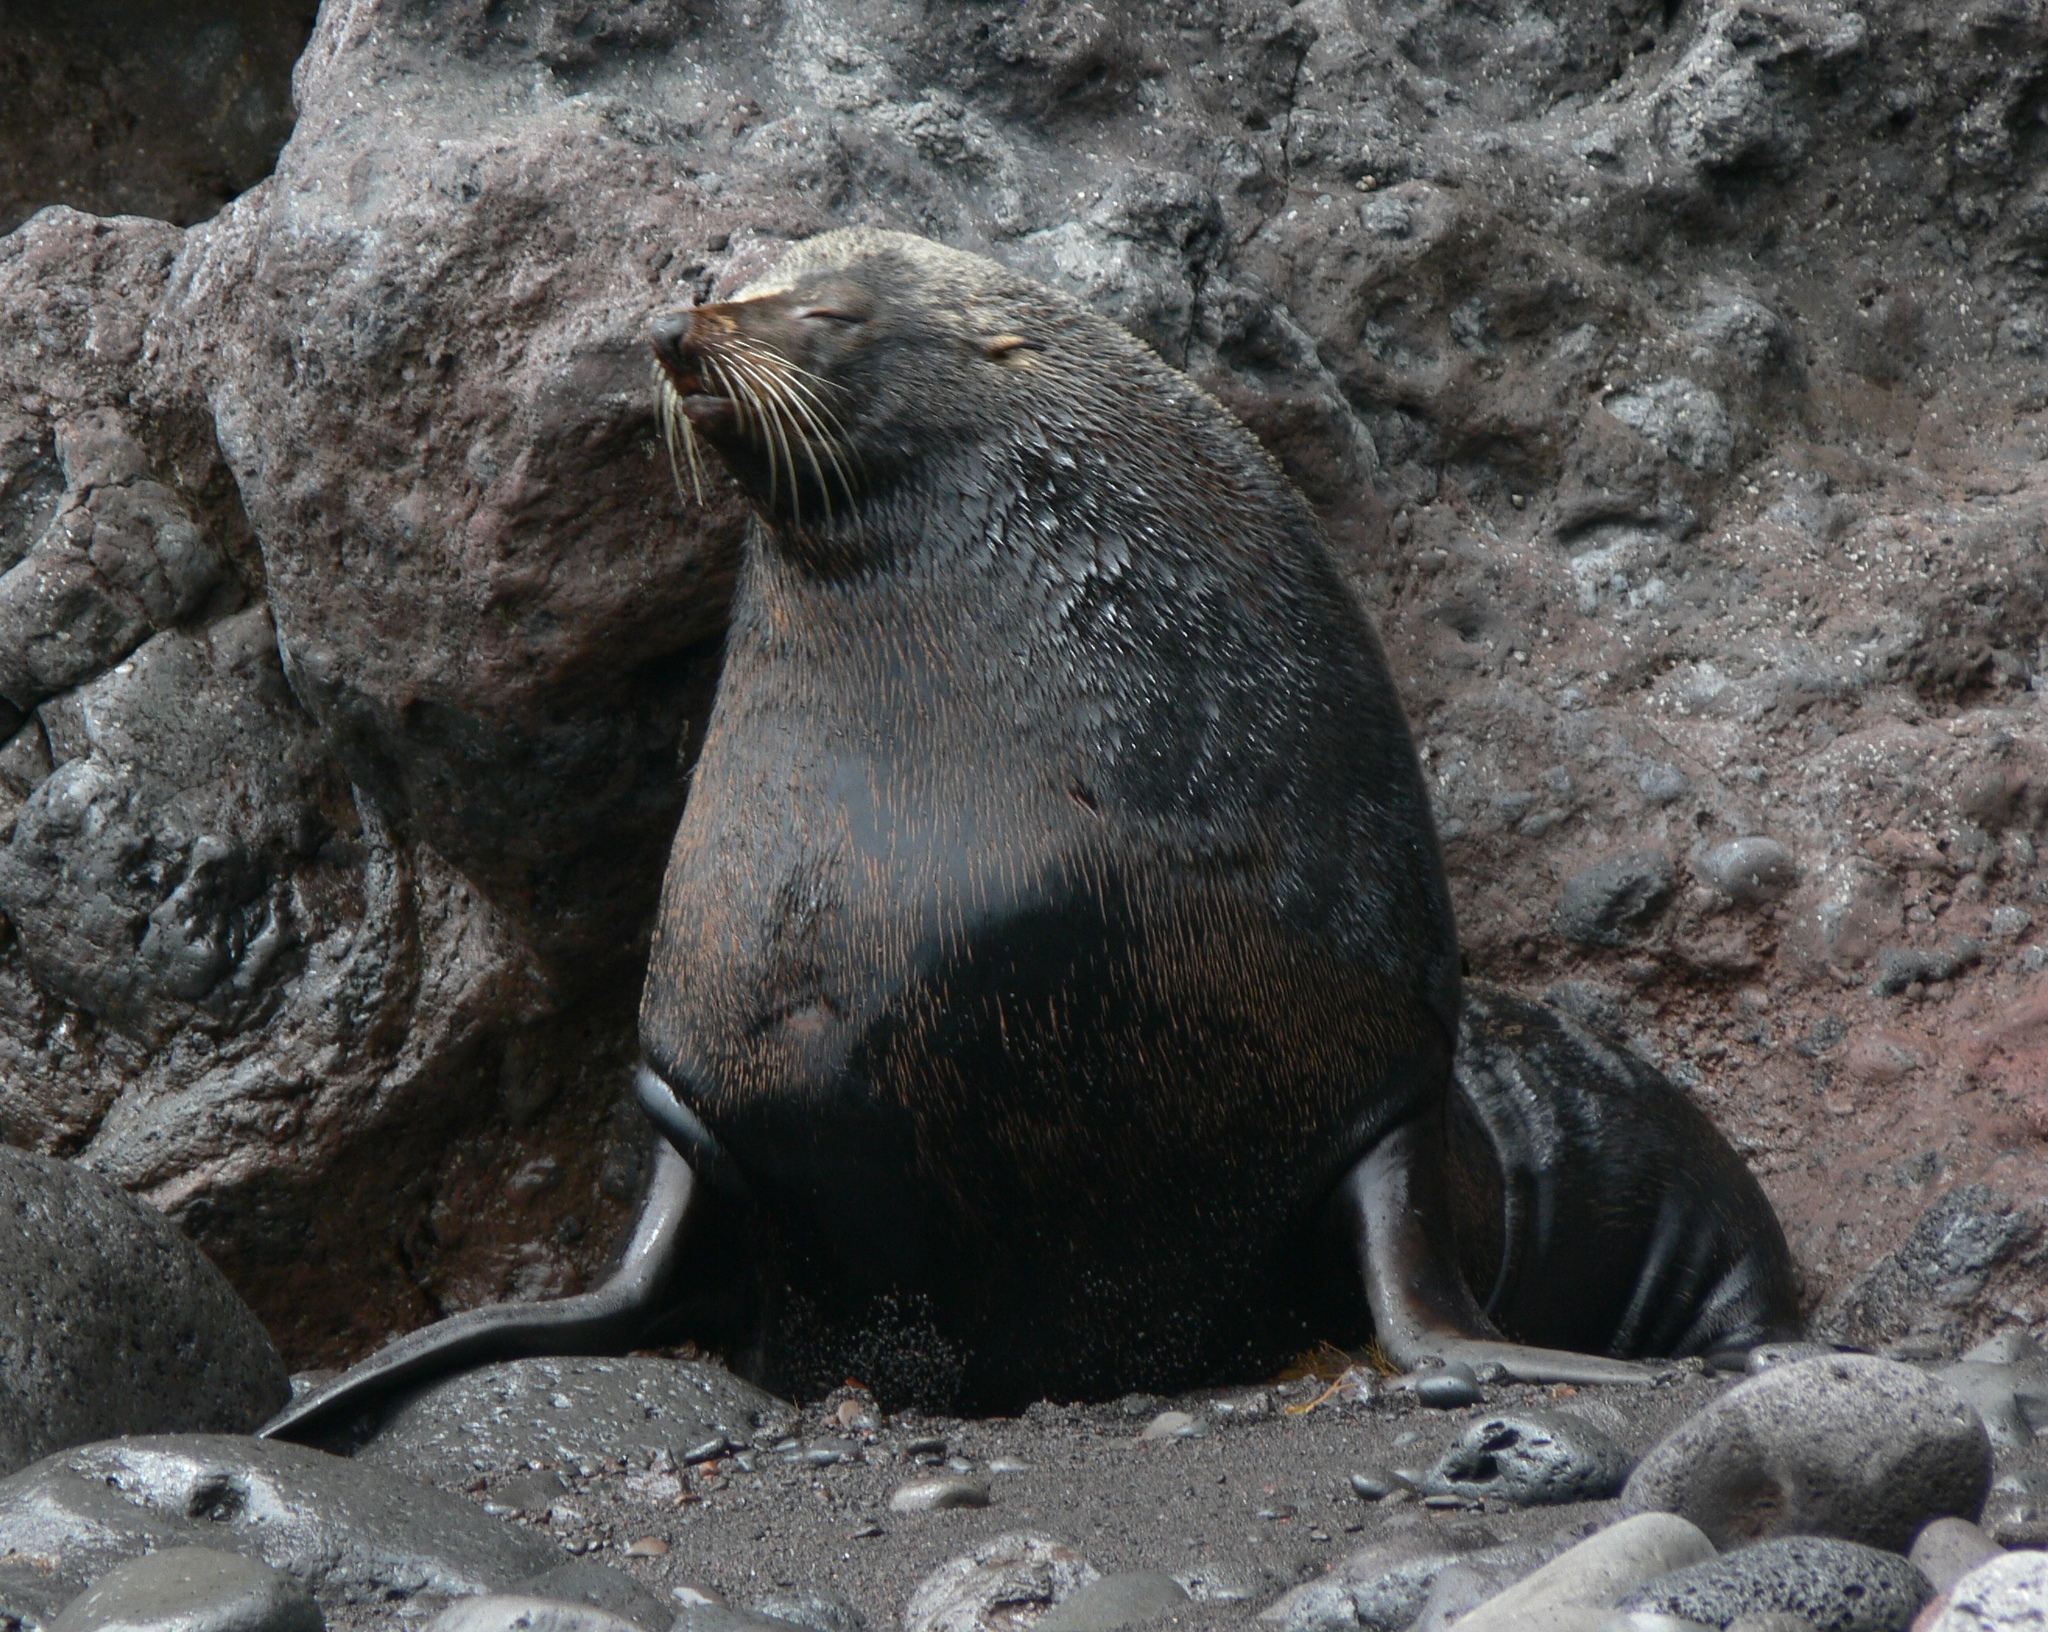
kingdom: Animalia
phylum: Chordata
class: Mammalia
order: Carnivora
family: Otariidae
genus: Arctocephalus
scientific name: Arctocephalus philippii
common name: Juan fernández fur seal
